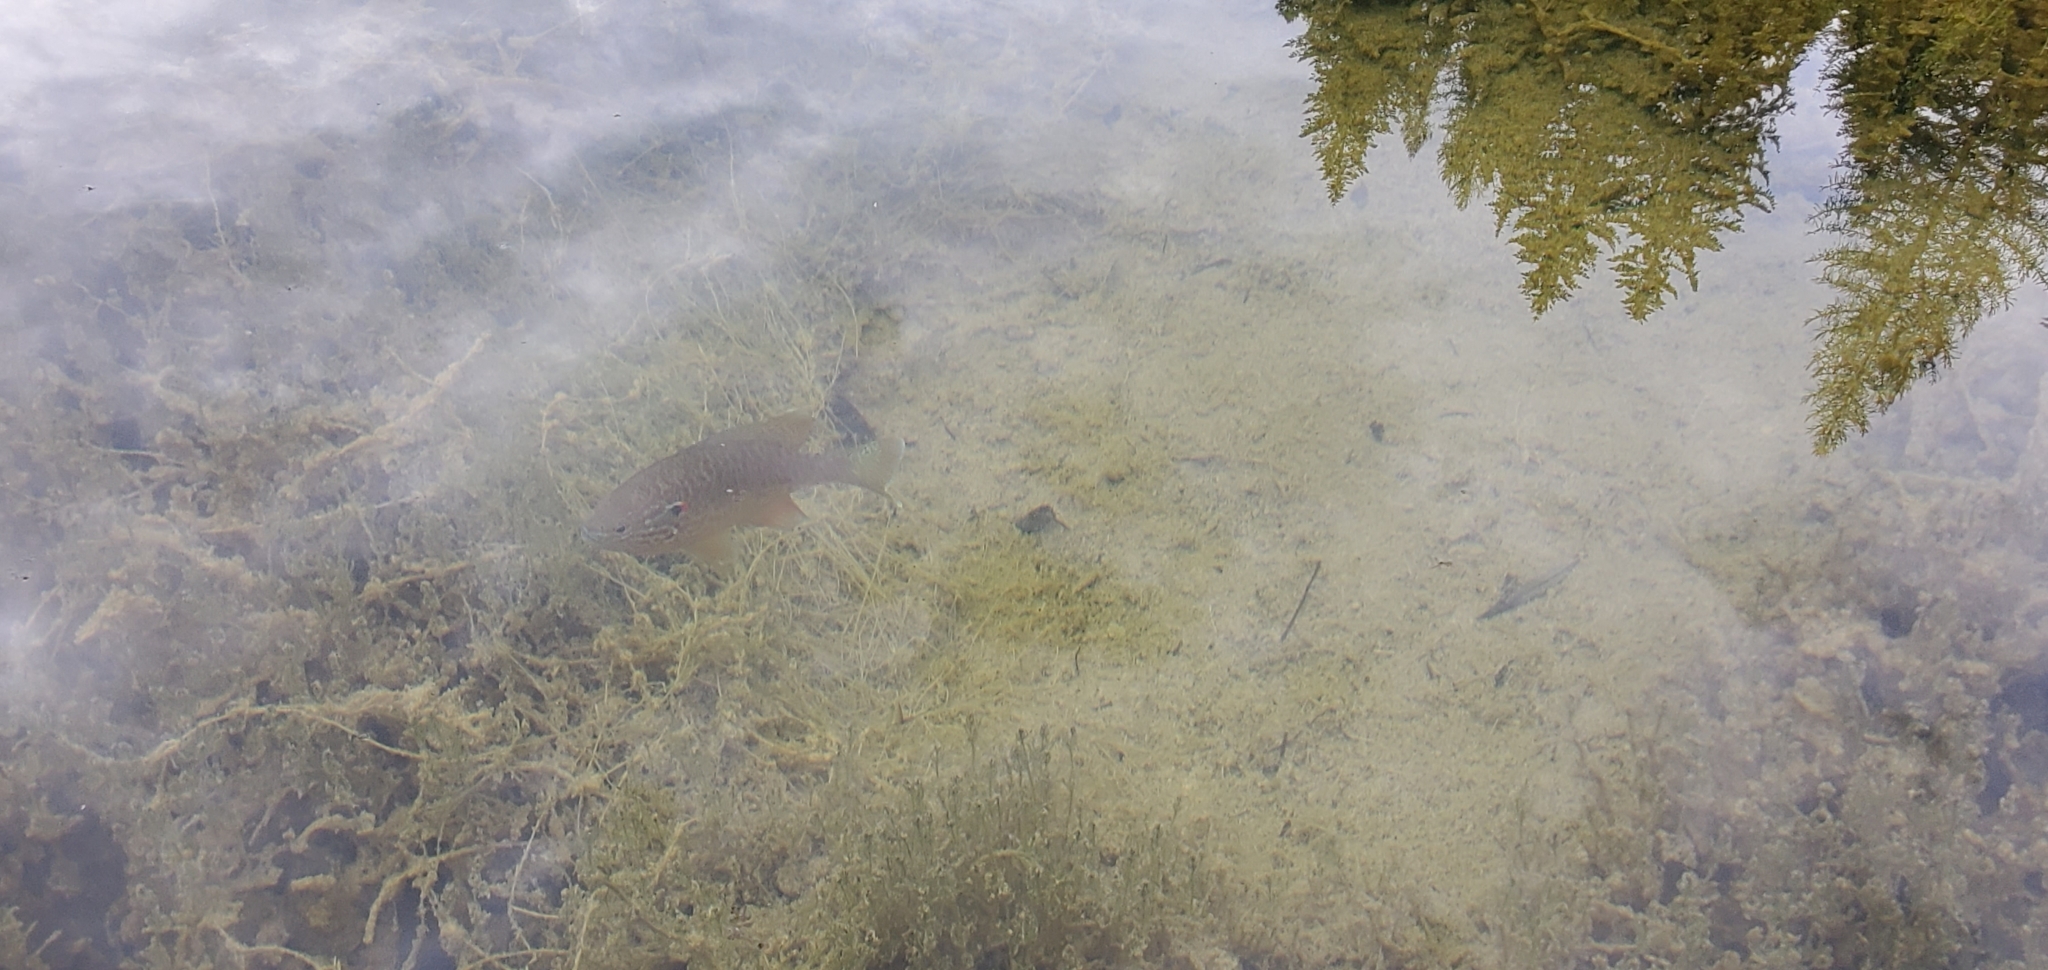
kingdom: Animalia
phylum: Chordata
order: Perciformes
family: Centrarchidae
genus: Lepomis
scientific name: Lepomis gibbosus
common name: Pumpkinseed
